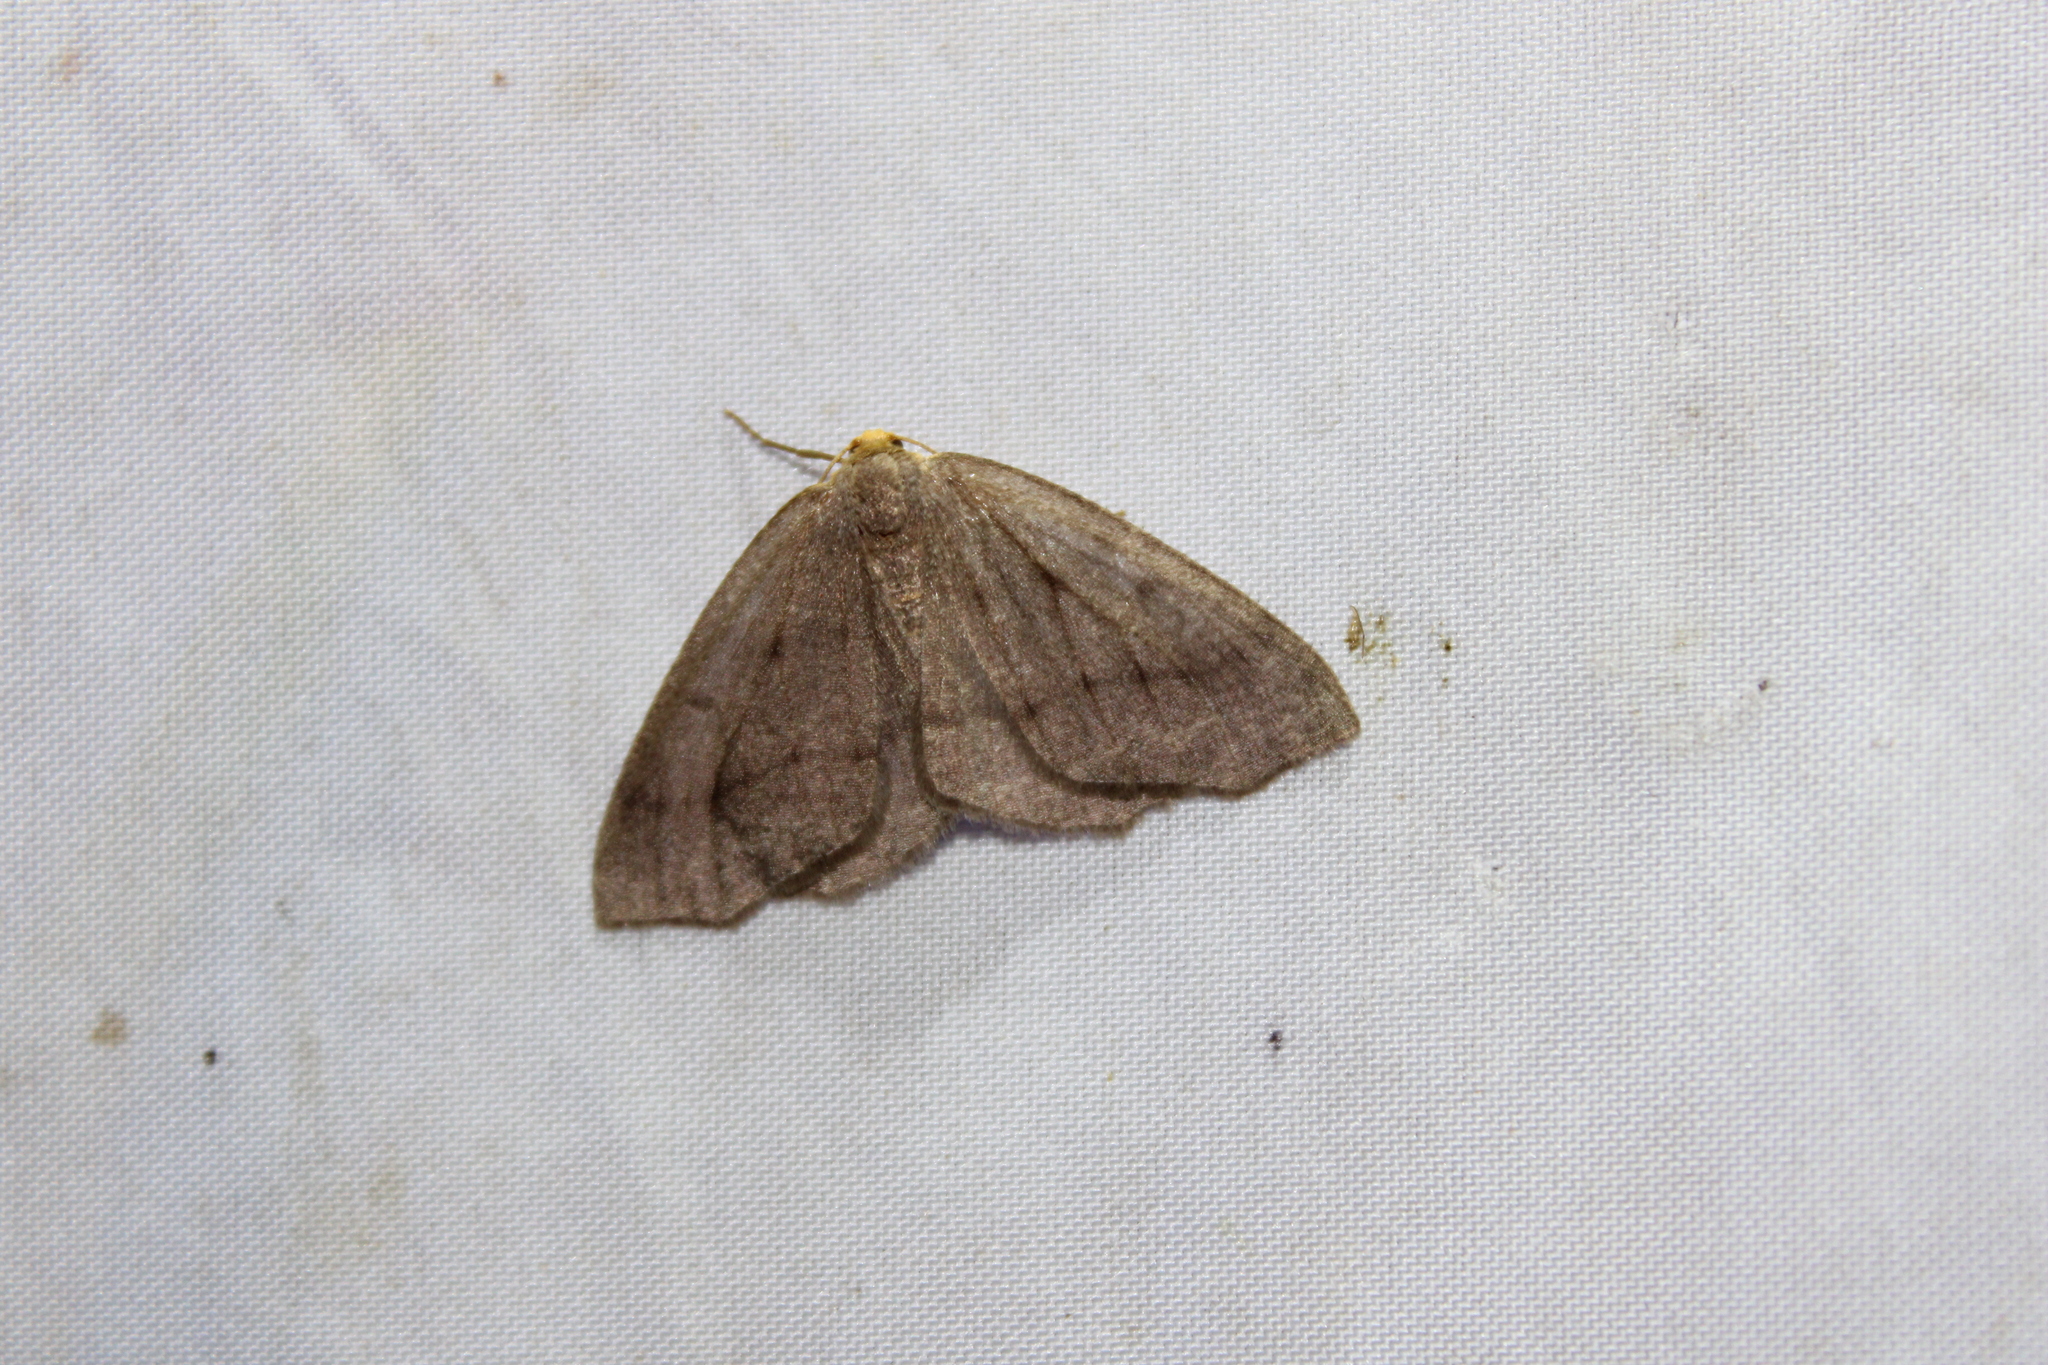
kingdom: Animalia
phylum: Arthropoda
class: Insecta
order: Lepidoptera
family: Geometridae
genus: Lambdina
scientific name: Lambdina pellucidaria
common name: Eastern pinelooper
